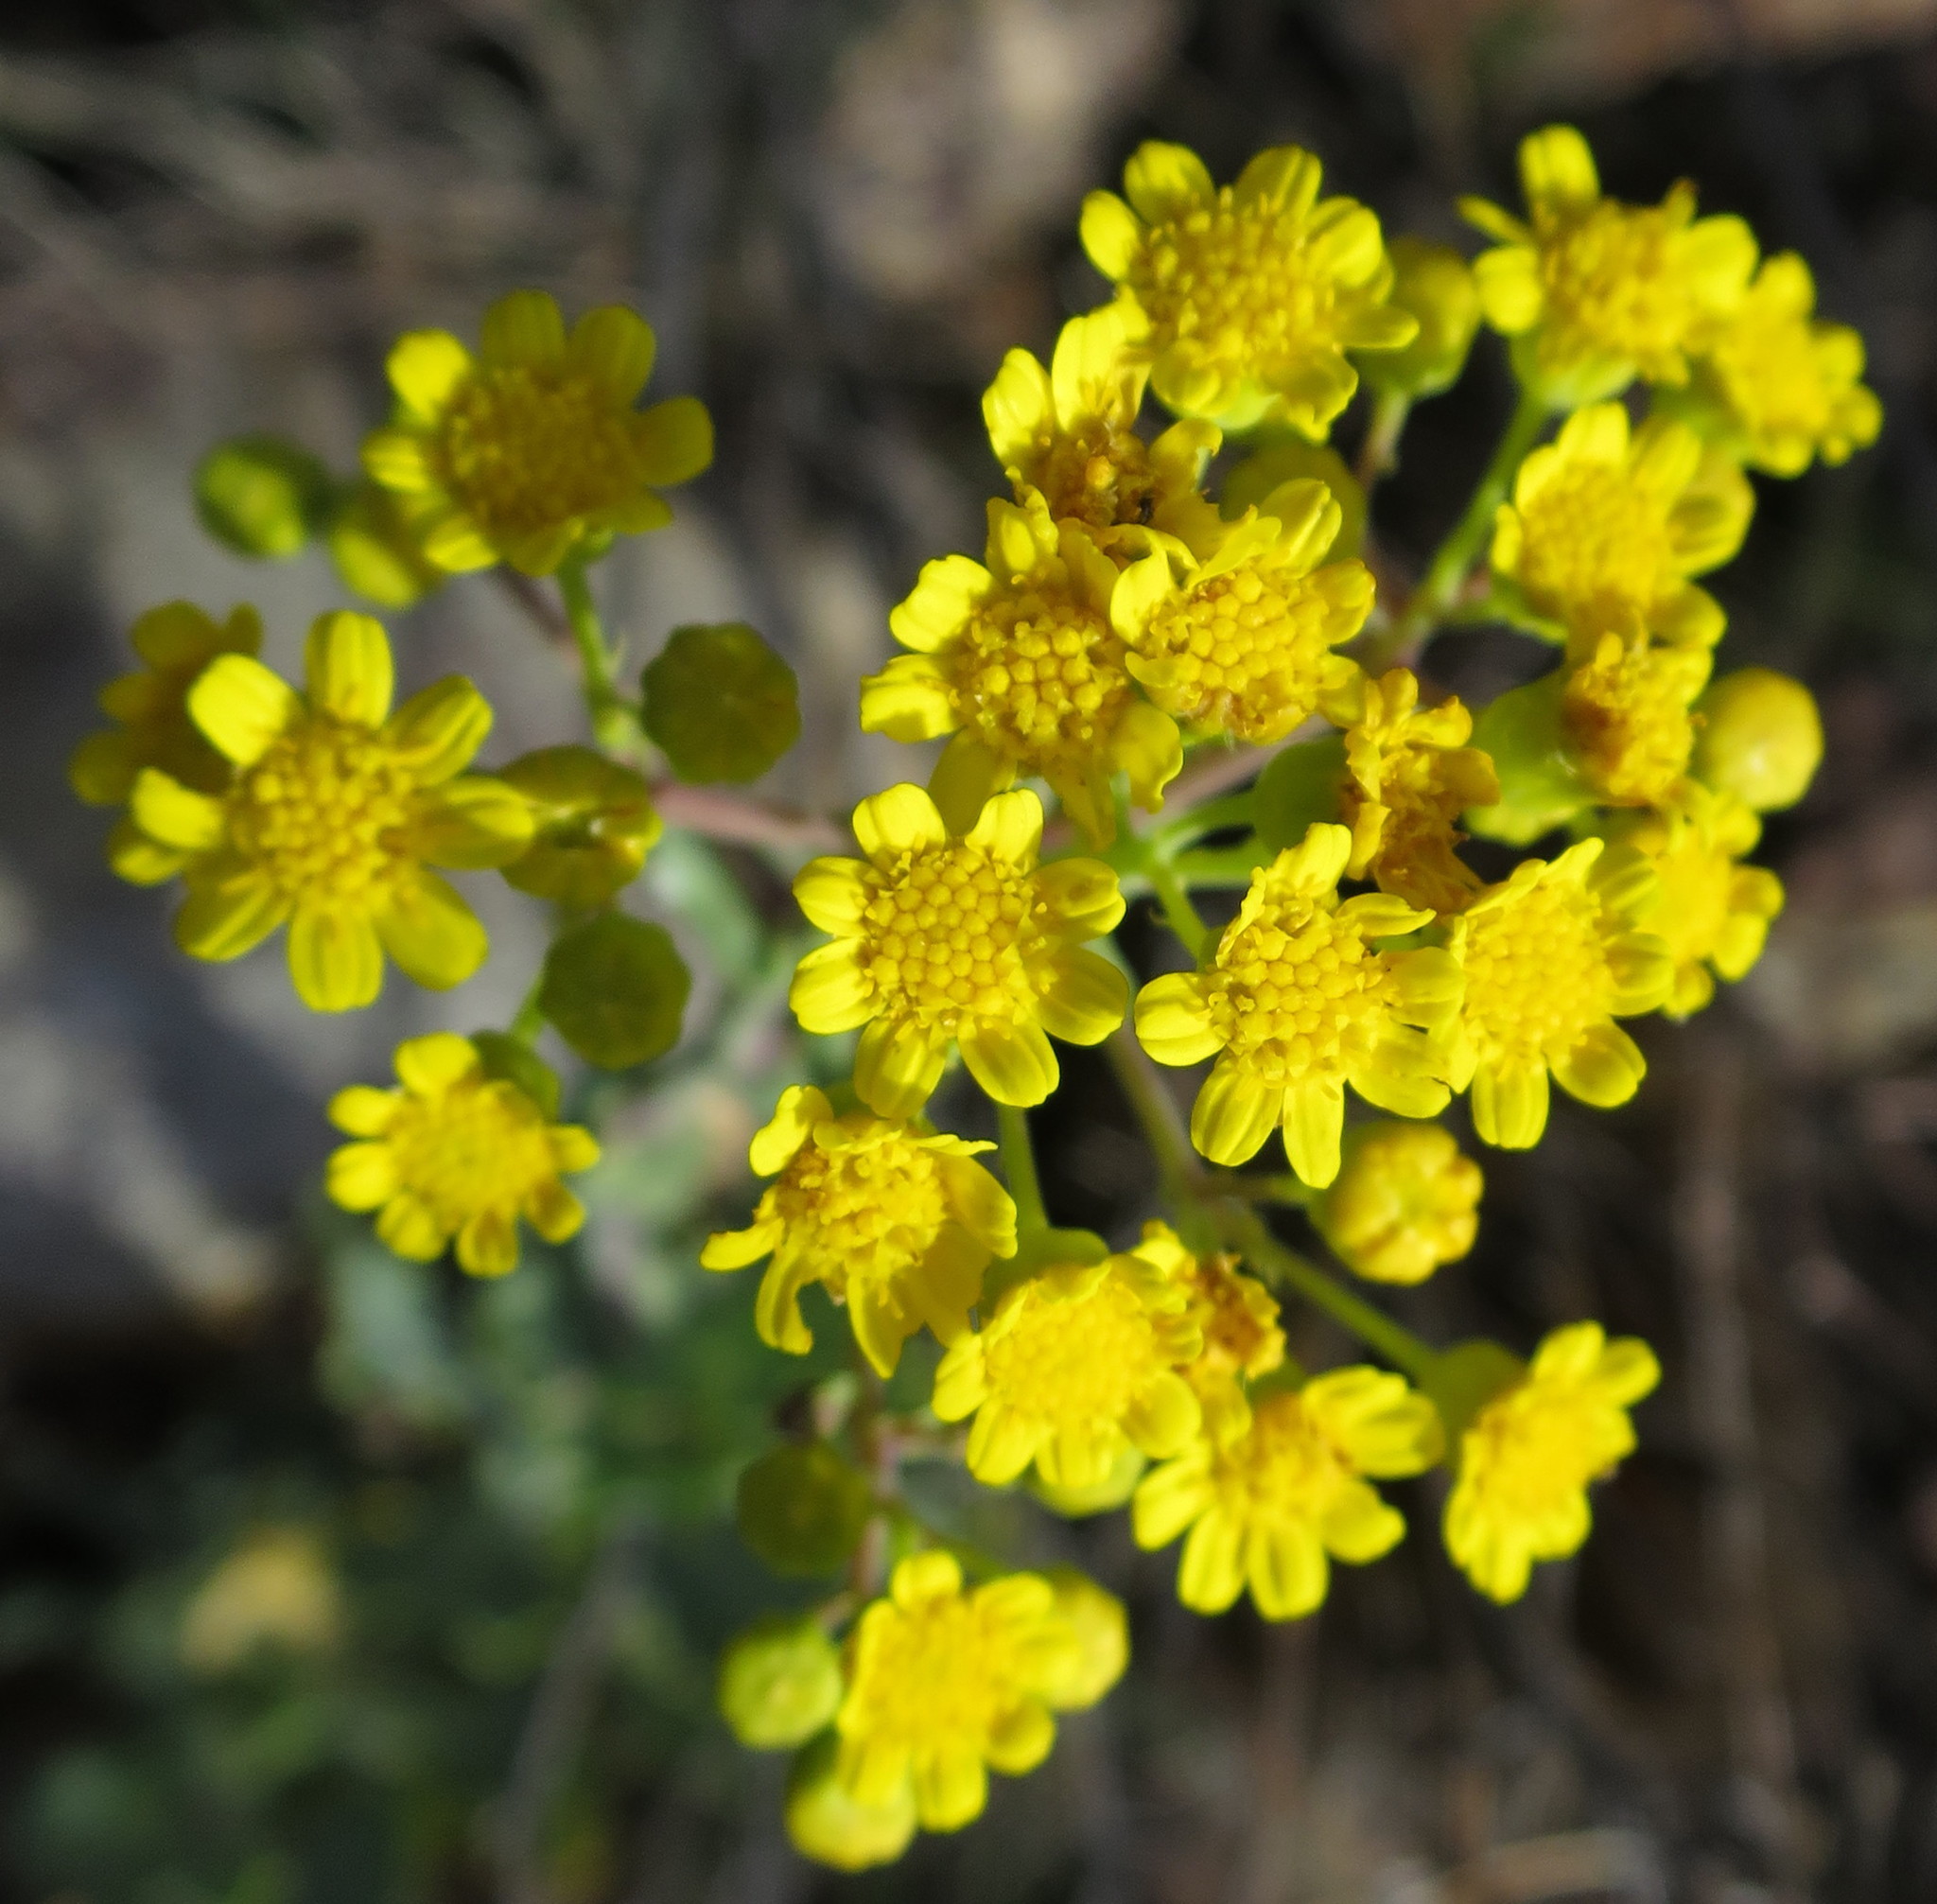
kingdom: Plantae
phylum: Tracheophyta
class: Magnoliopsida
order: Asterales
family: Asteraceae
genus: Othonna
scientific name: Othonna parviflora
